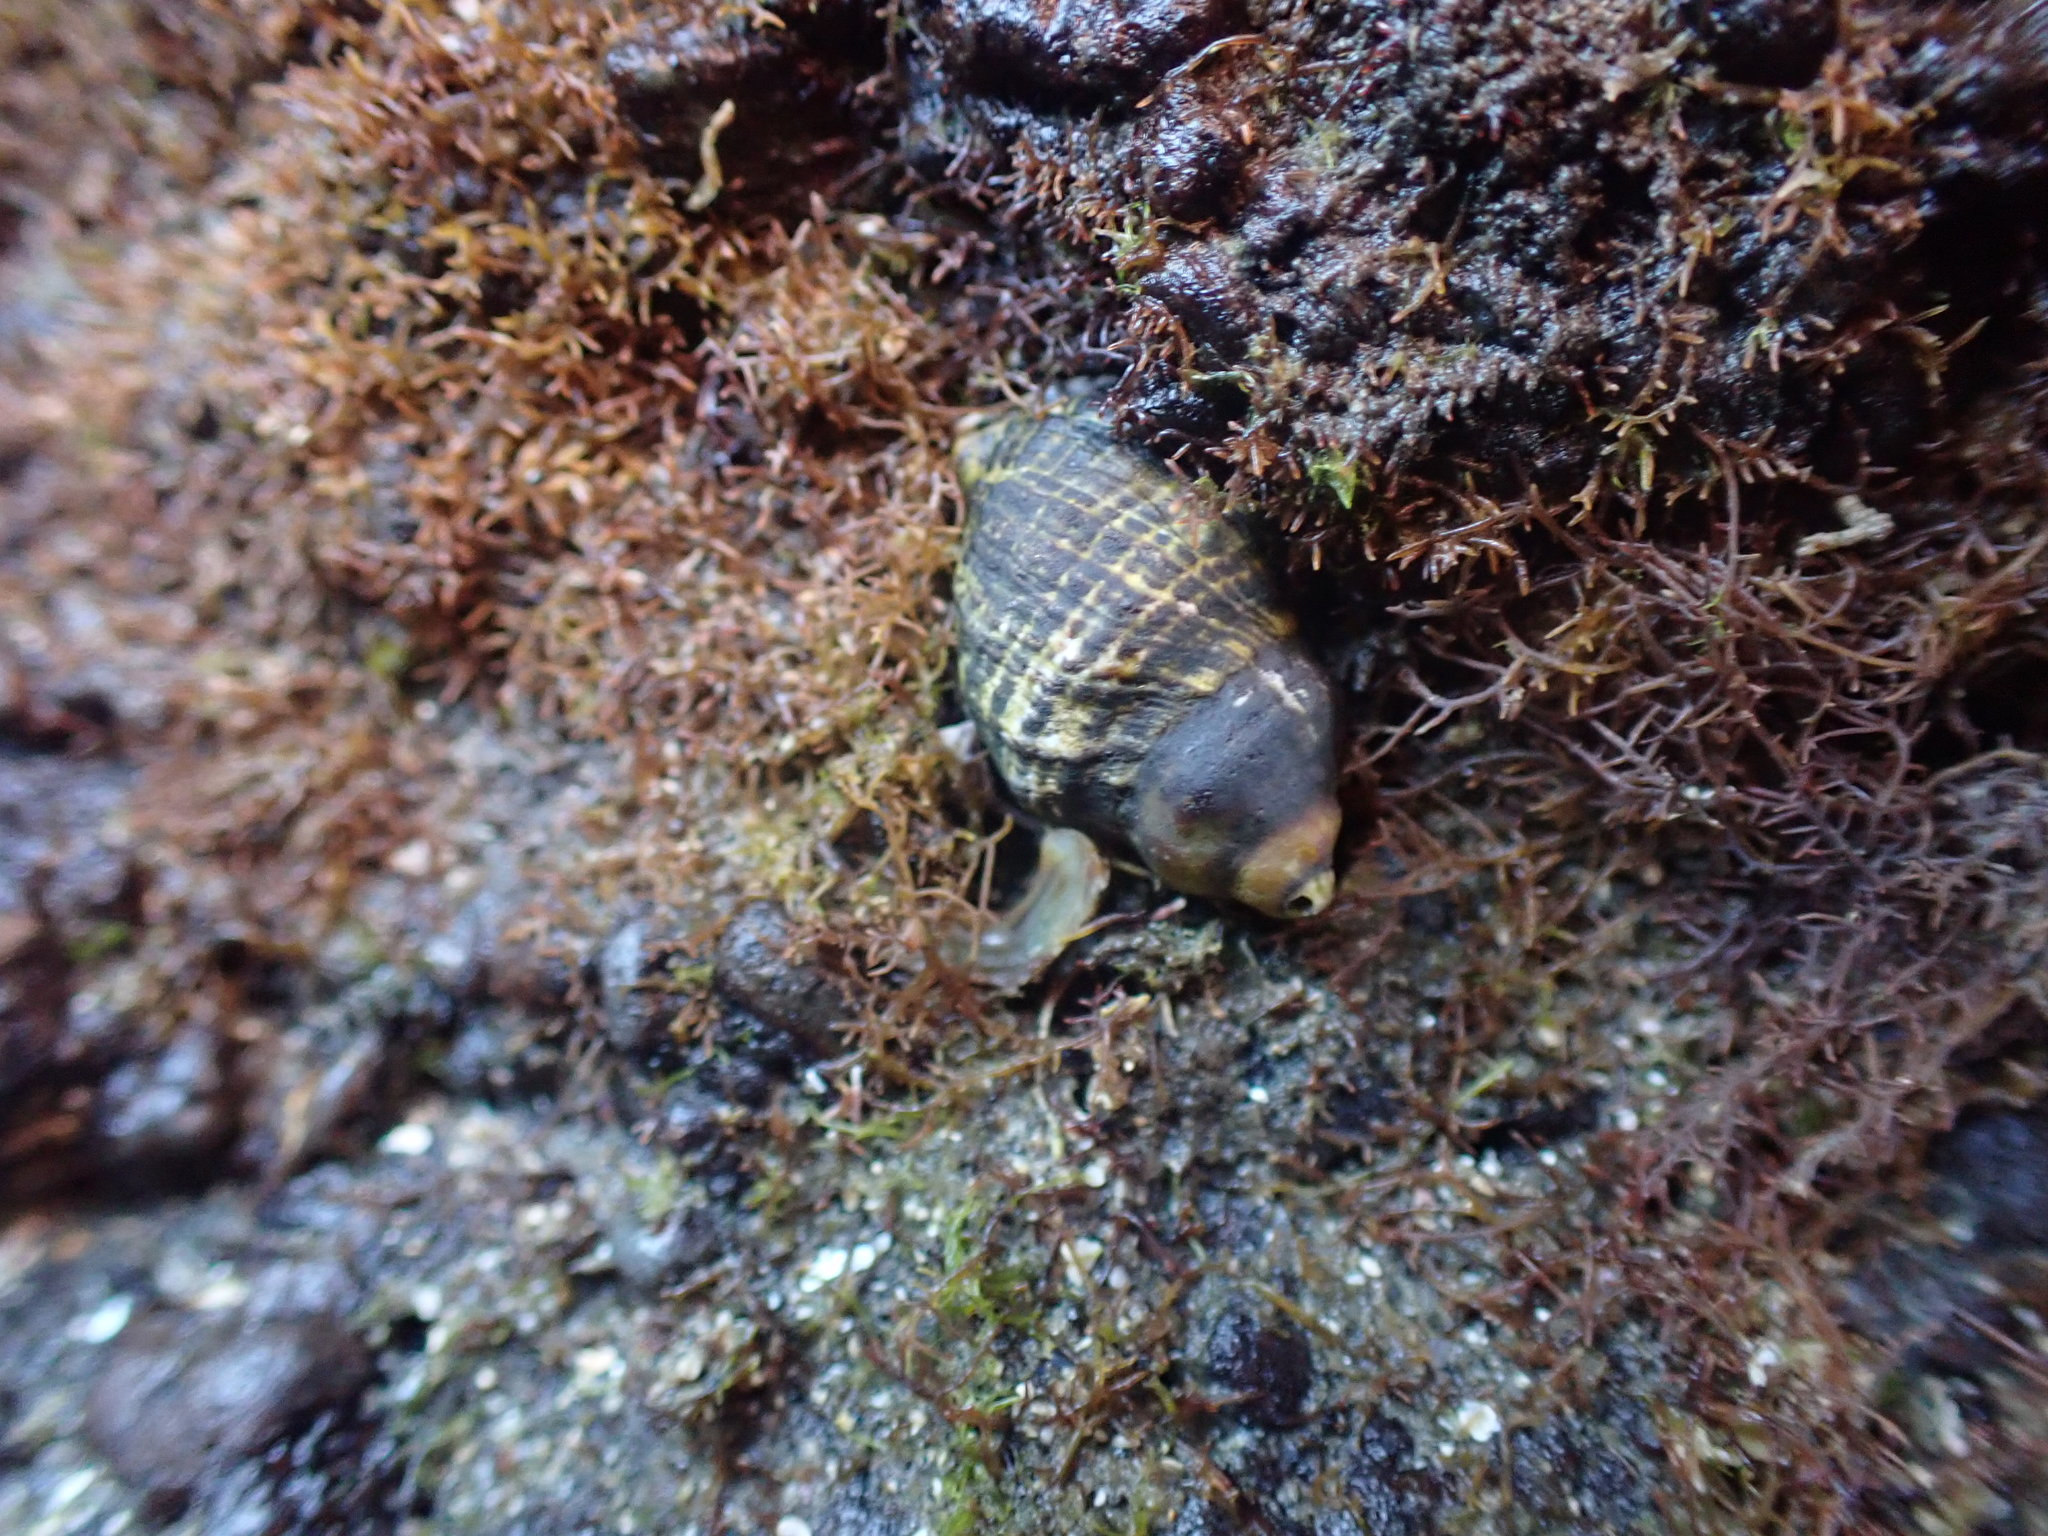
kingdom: Animalia
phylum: Mollusca
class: Gastropoda
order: Neogastropoda
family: Muricidae
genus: Haustrum
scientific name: Haustrum albomarginatum
